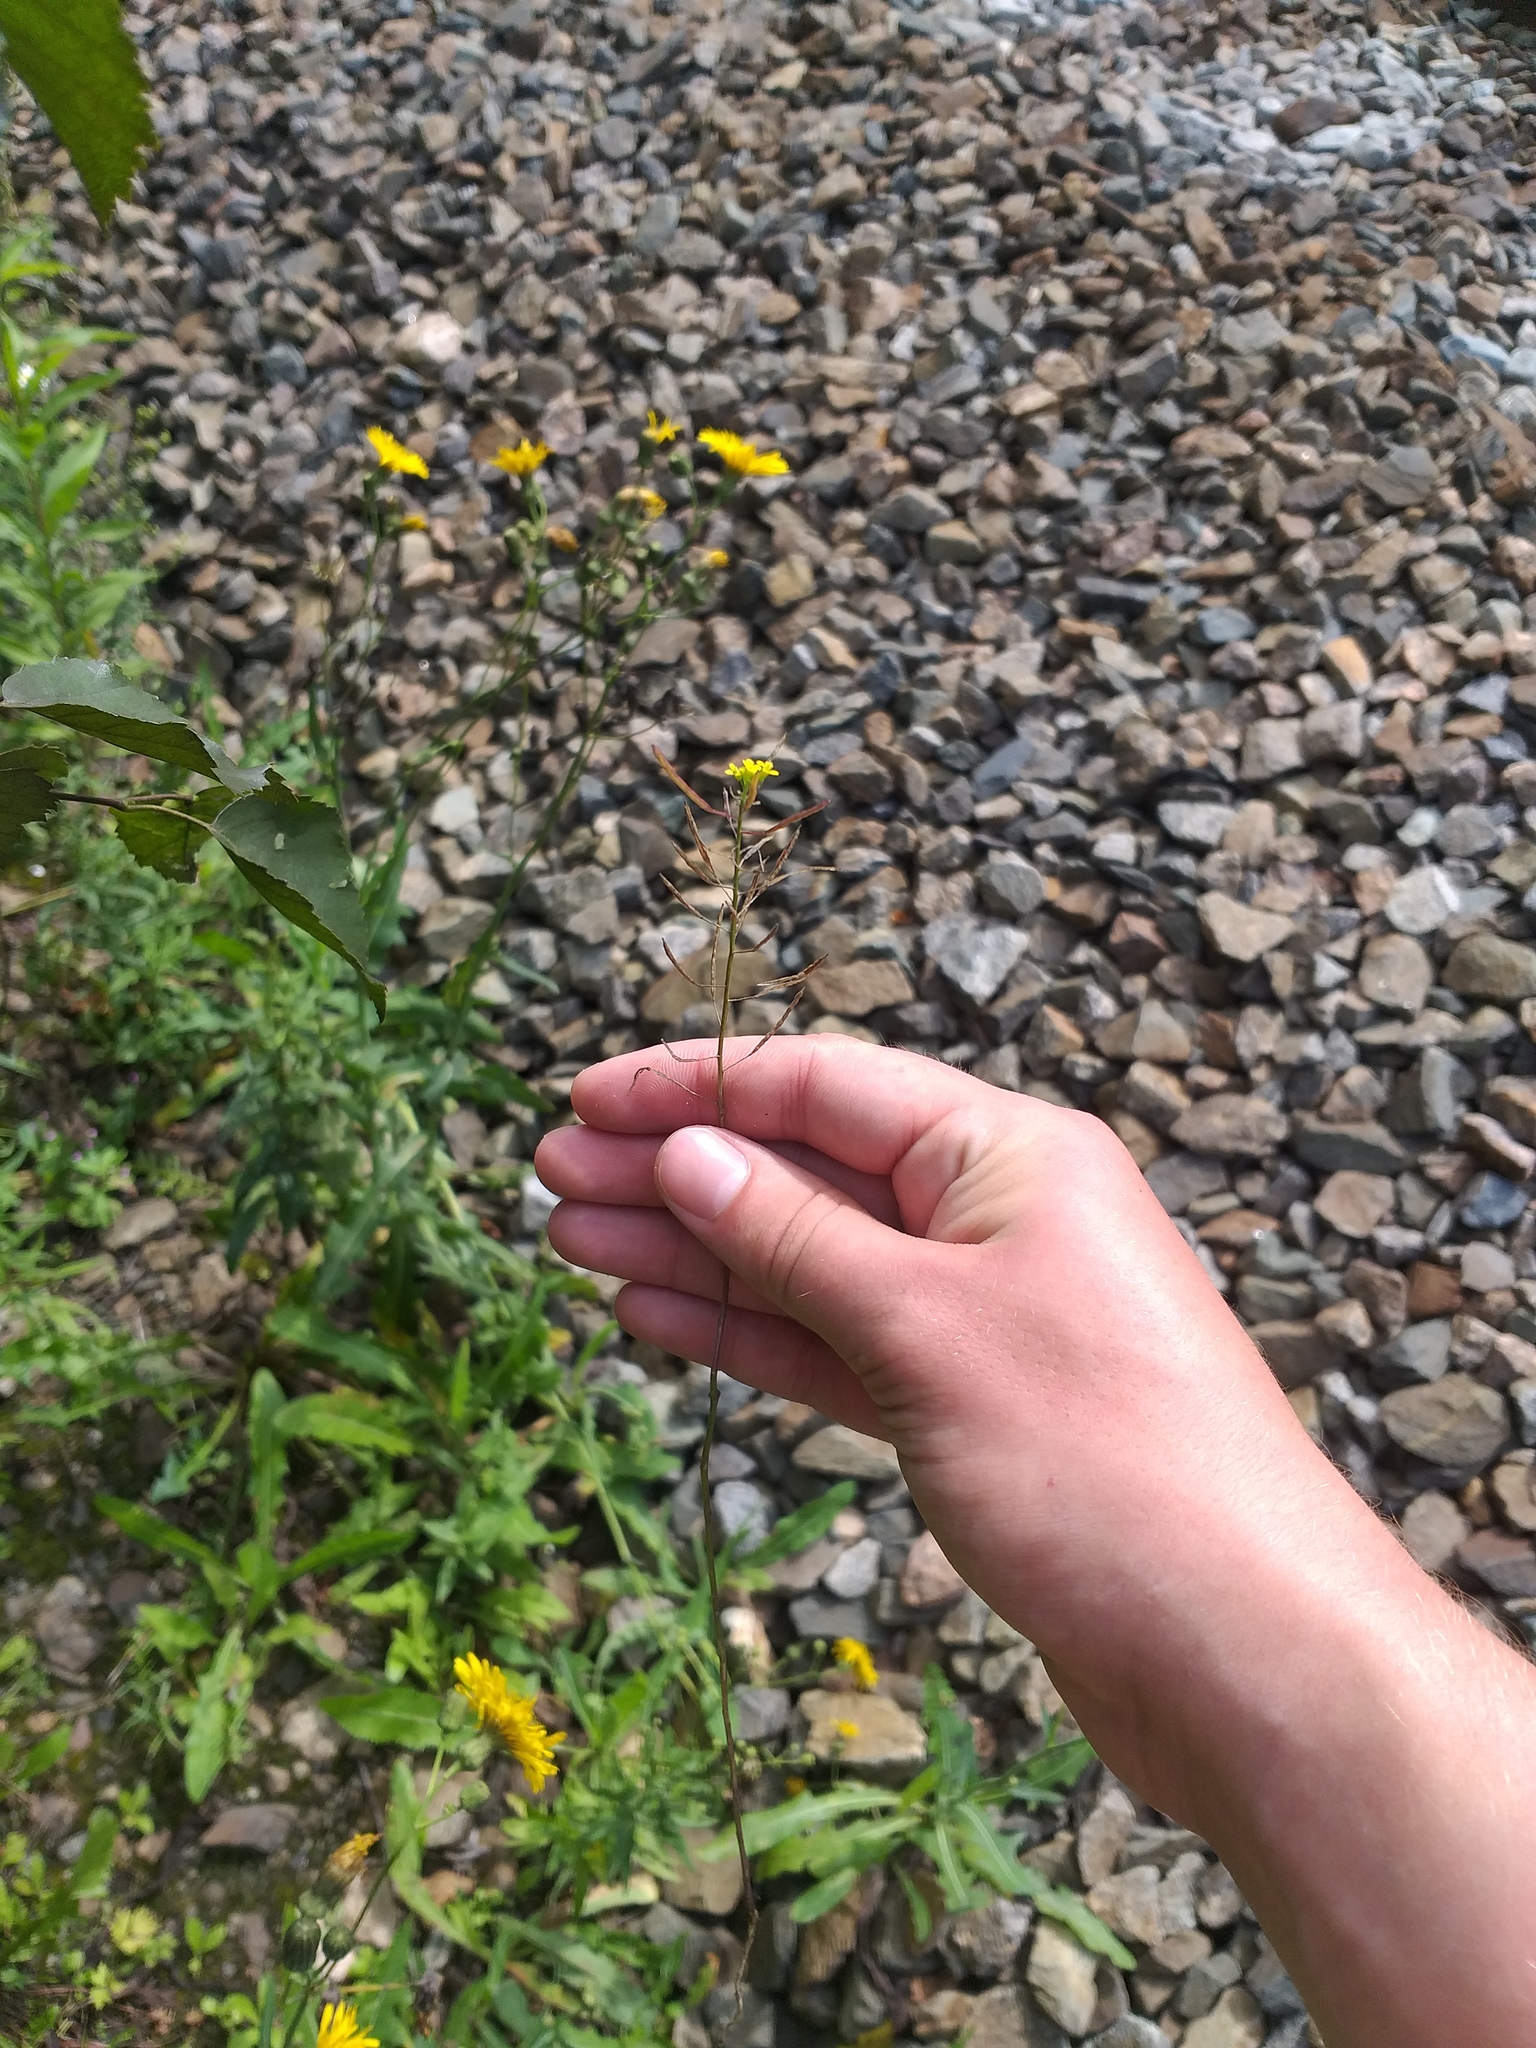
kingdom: Plantae
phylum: Tracheophyta
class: Magnoliopsida
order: Brassicales
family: Brassicaceae
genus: Erysimum
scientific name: Erysimum cheiranthoides
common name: Treacle mustard
